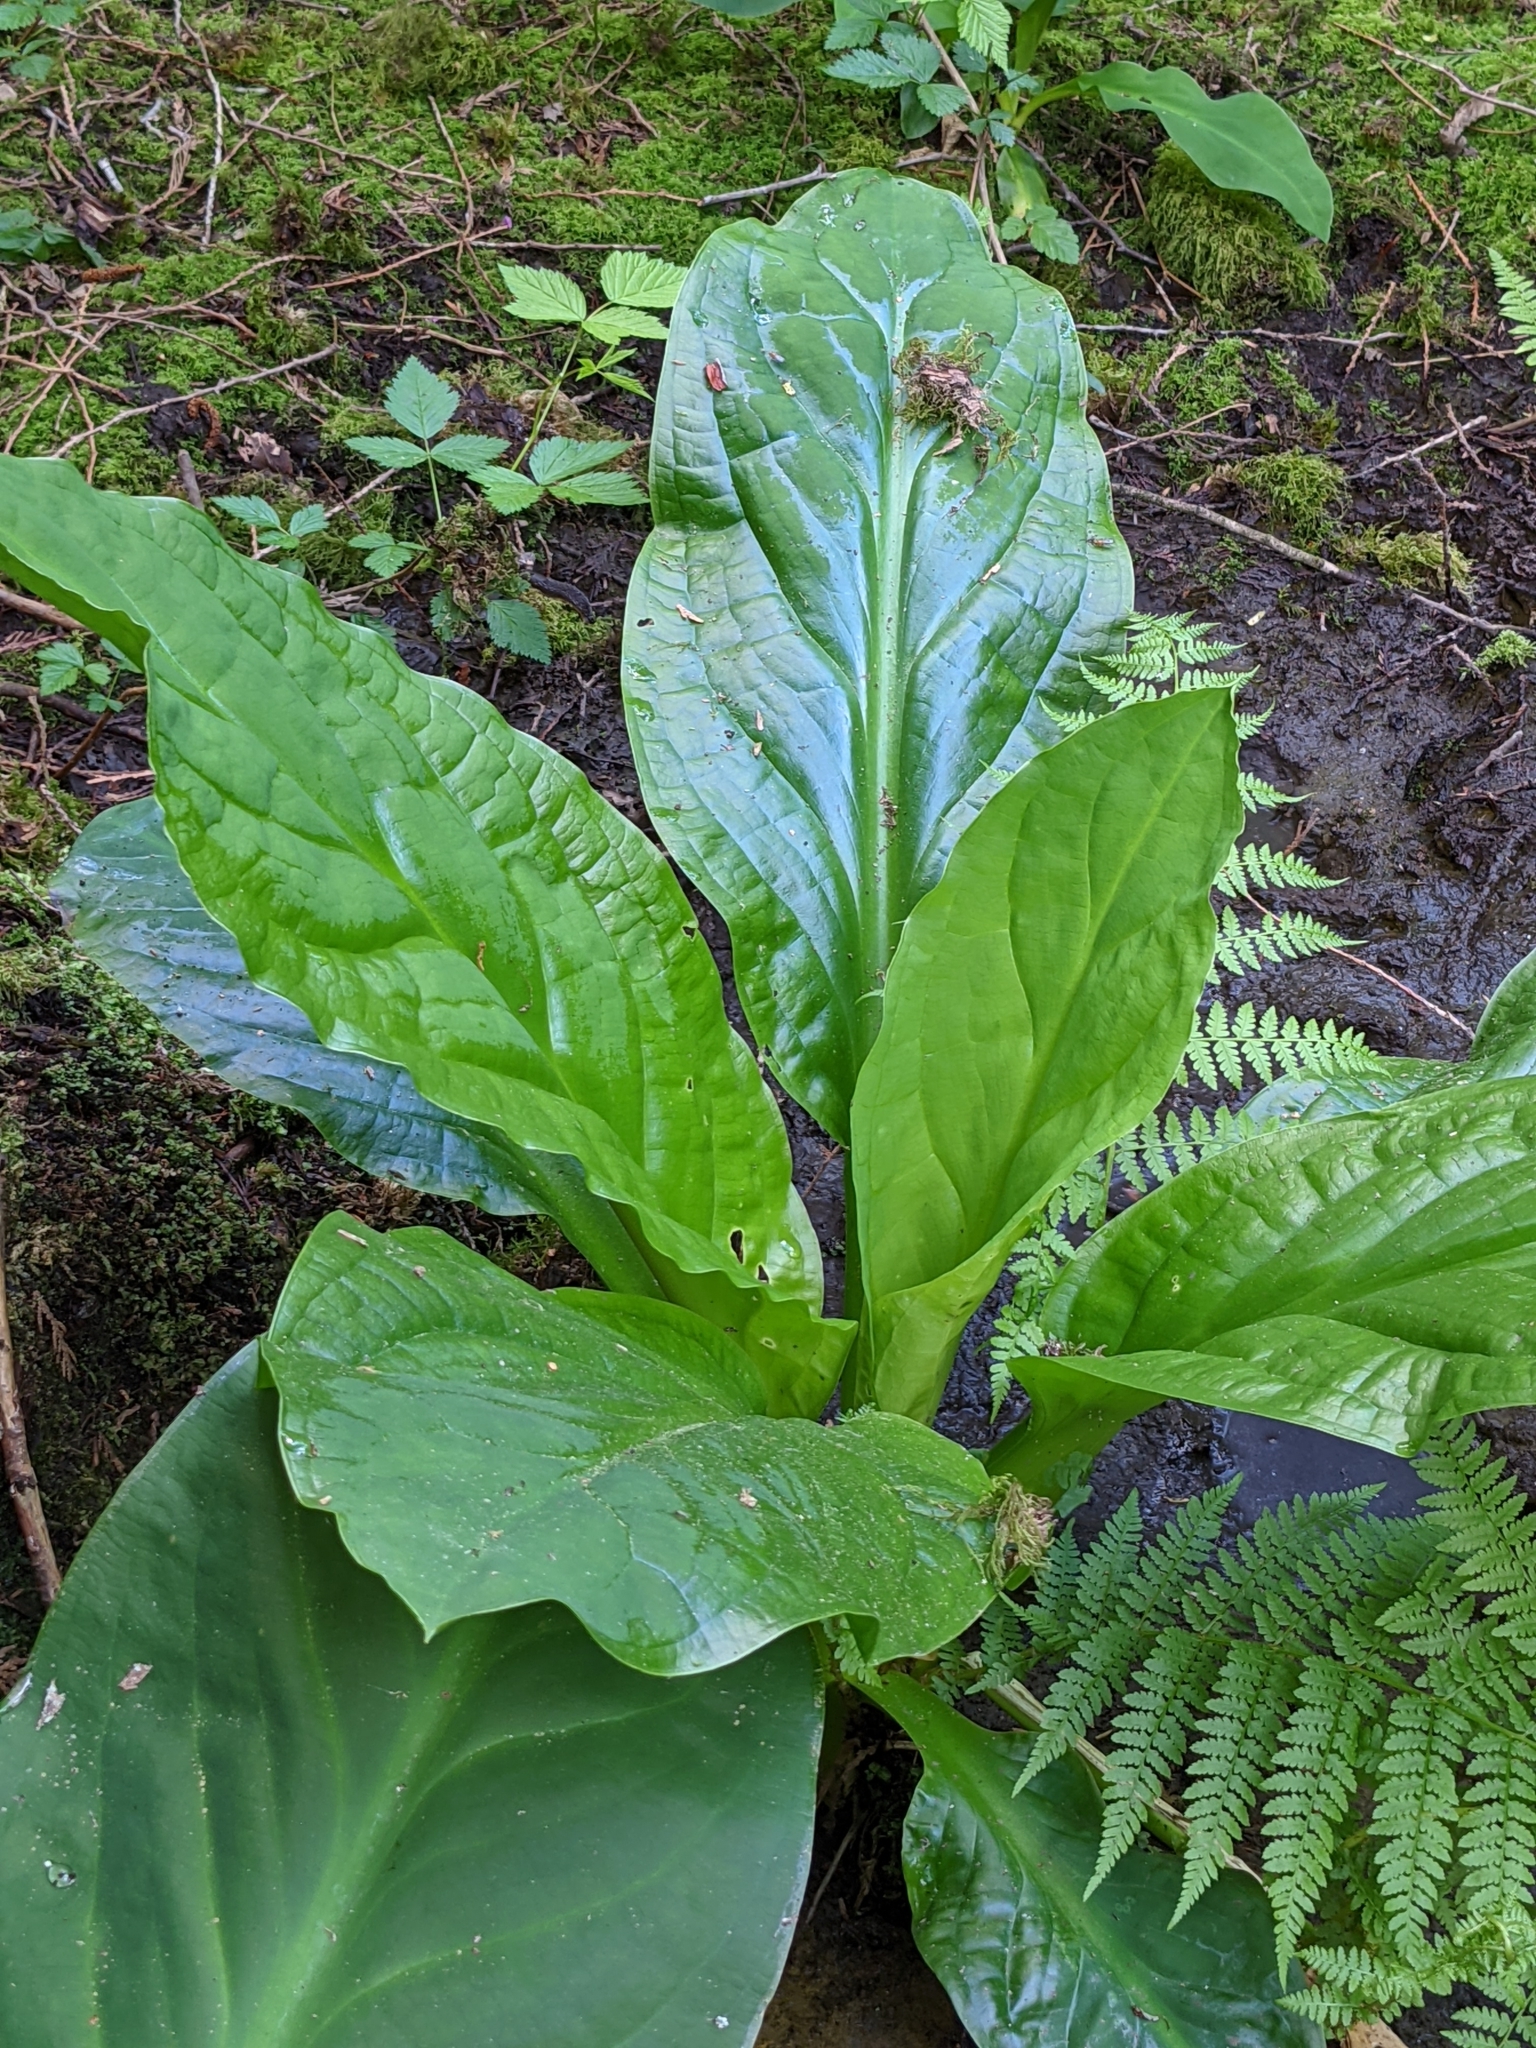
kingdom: Plantae
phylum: Tracheophyta
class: Liliopsida
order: Alismatales
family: Araceae
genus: Lysichiton
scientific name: Lysichiton americanus
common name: American skunk cabbage
